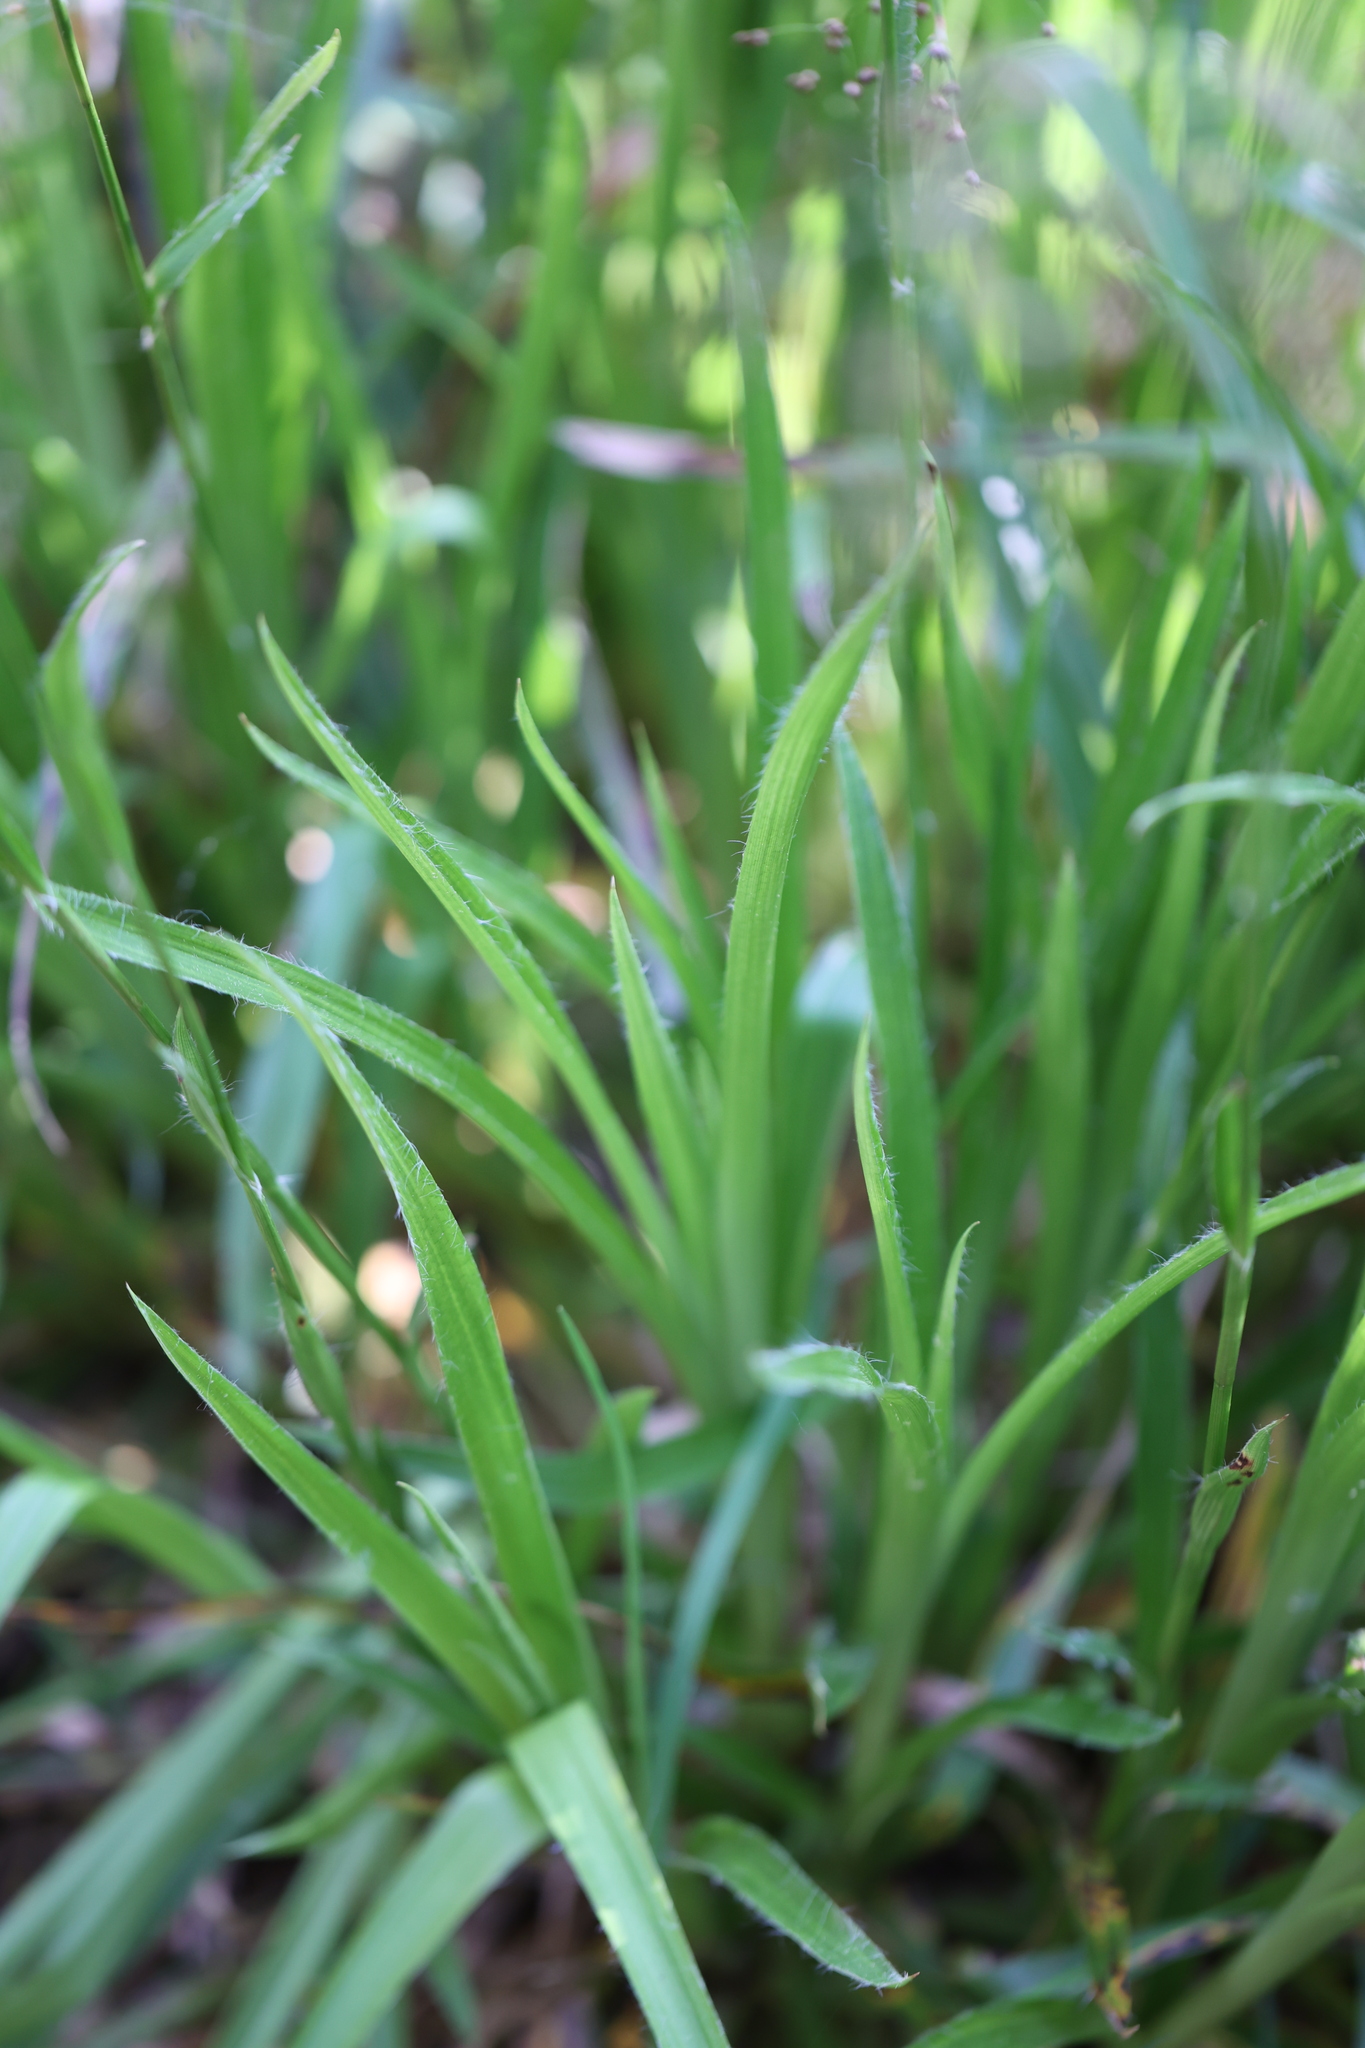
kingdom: Plantae
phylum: Tracheophyta
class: Liliopsida
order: Poales
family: Juncaceae
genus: Luzula
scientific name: Luzula sylvatica
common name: Great wood-rush
